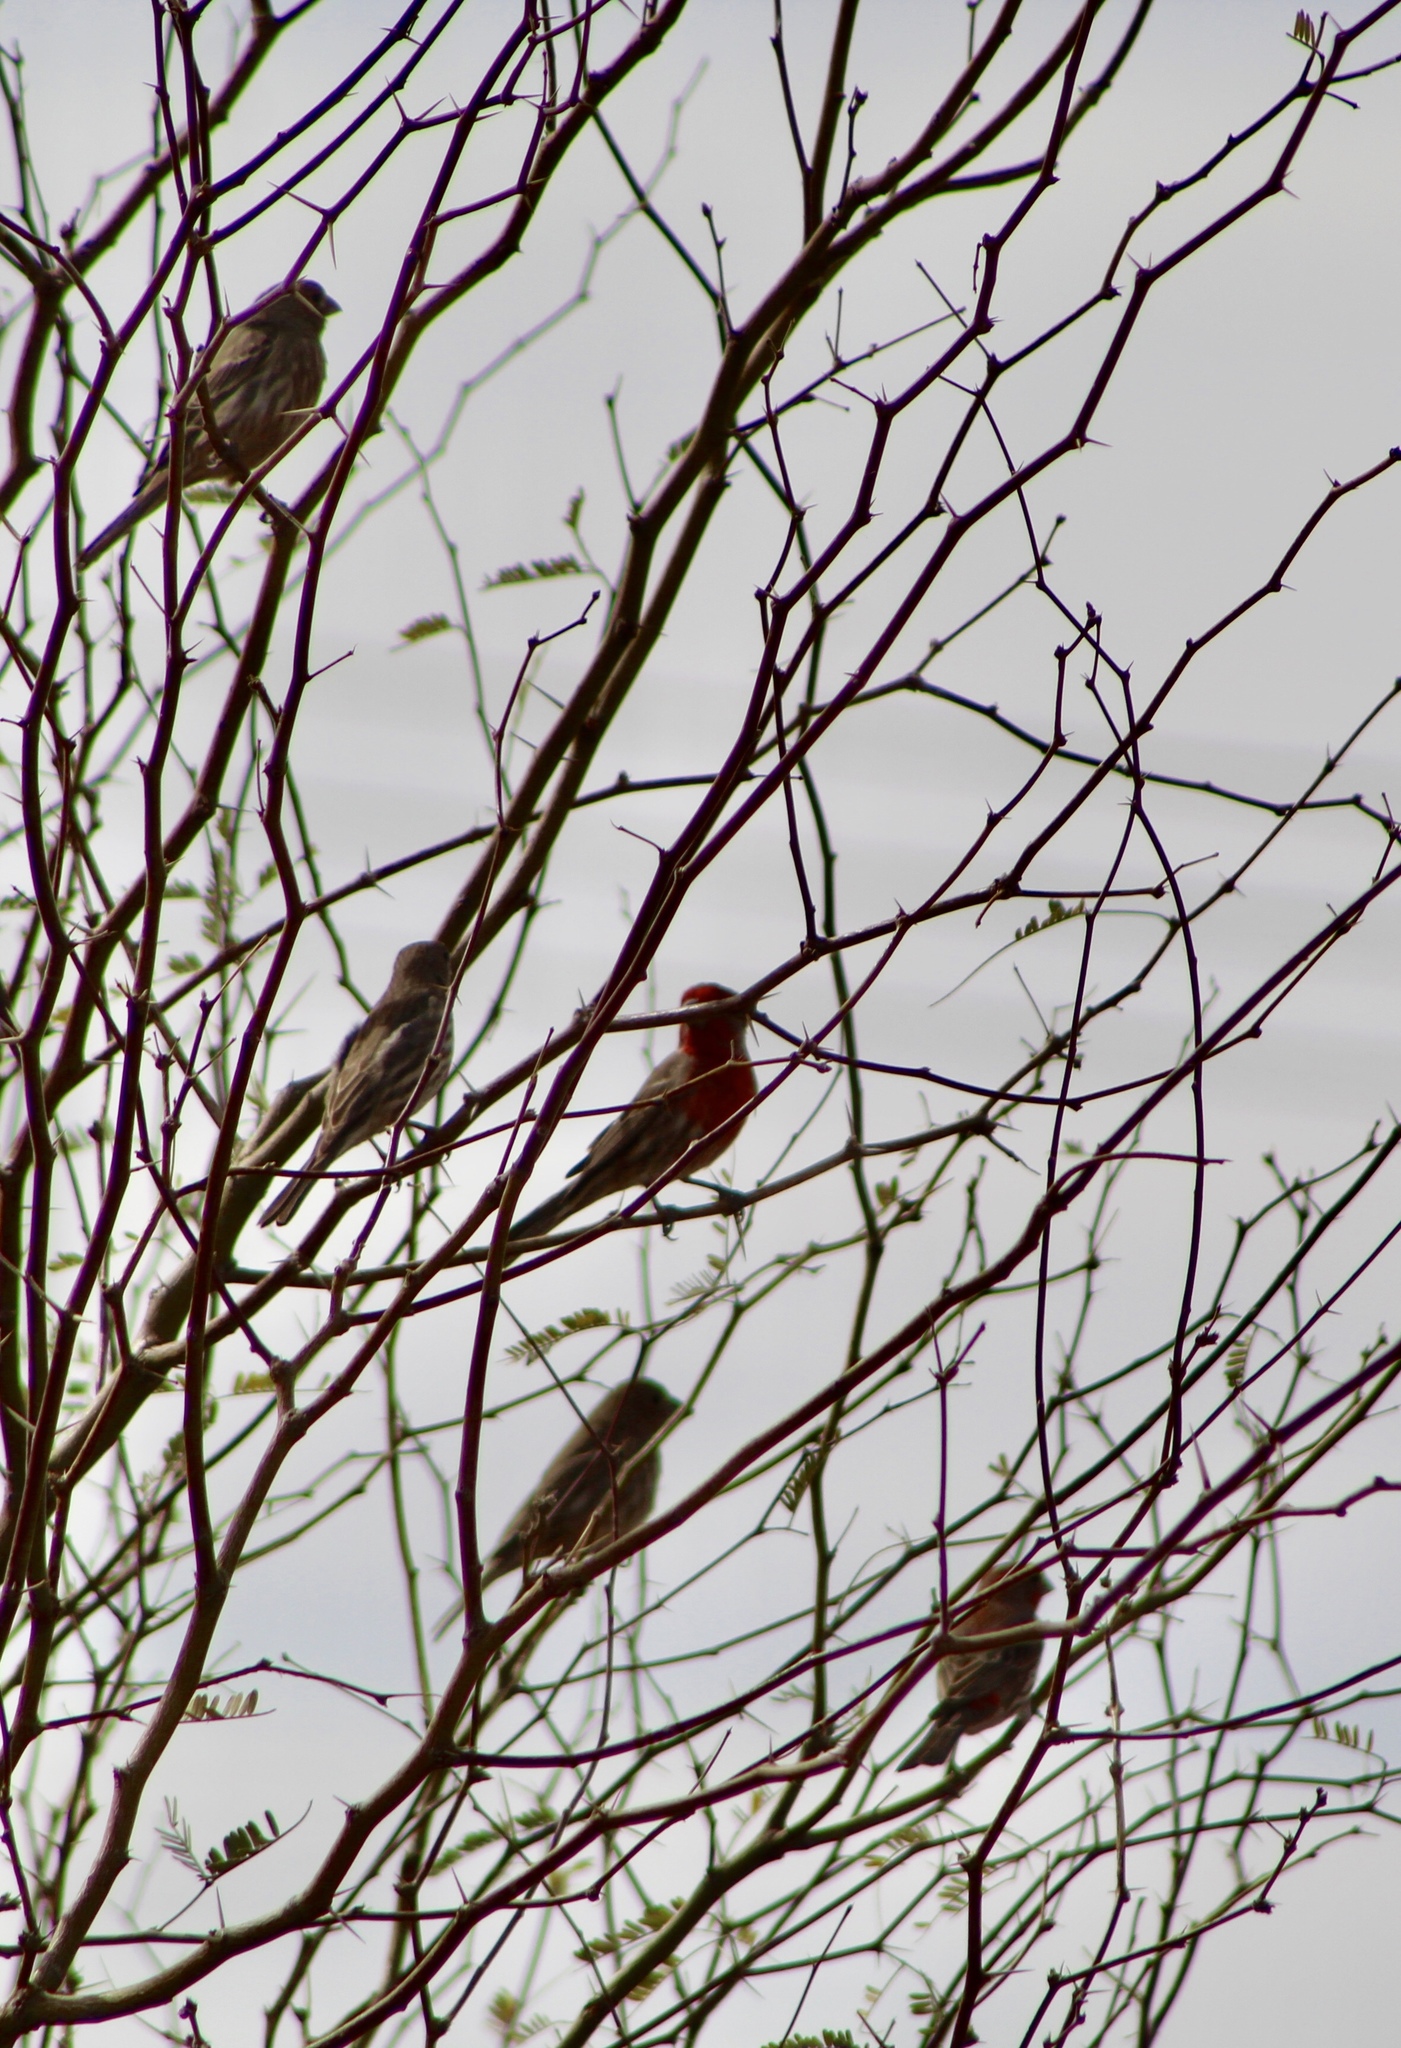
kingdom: Animalia
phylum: Chordata
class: Aves
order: Passeriformes
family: Fringillidae
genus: Haemorhous
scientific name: Haemorhous mexicanus
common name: House finch
